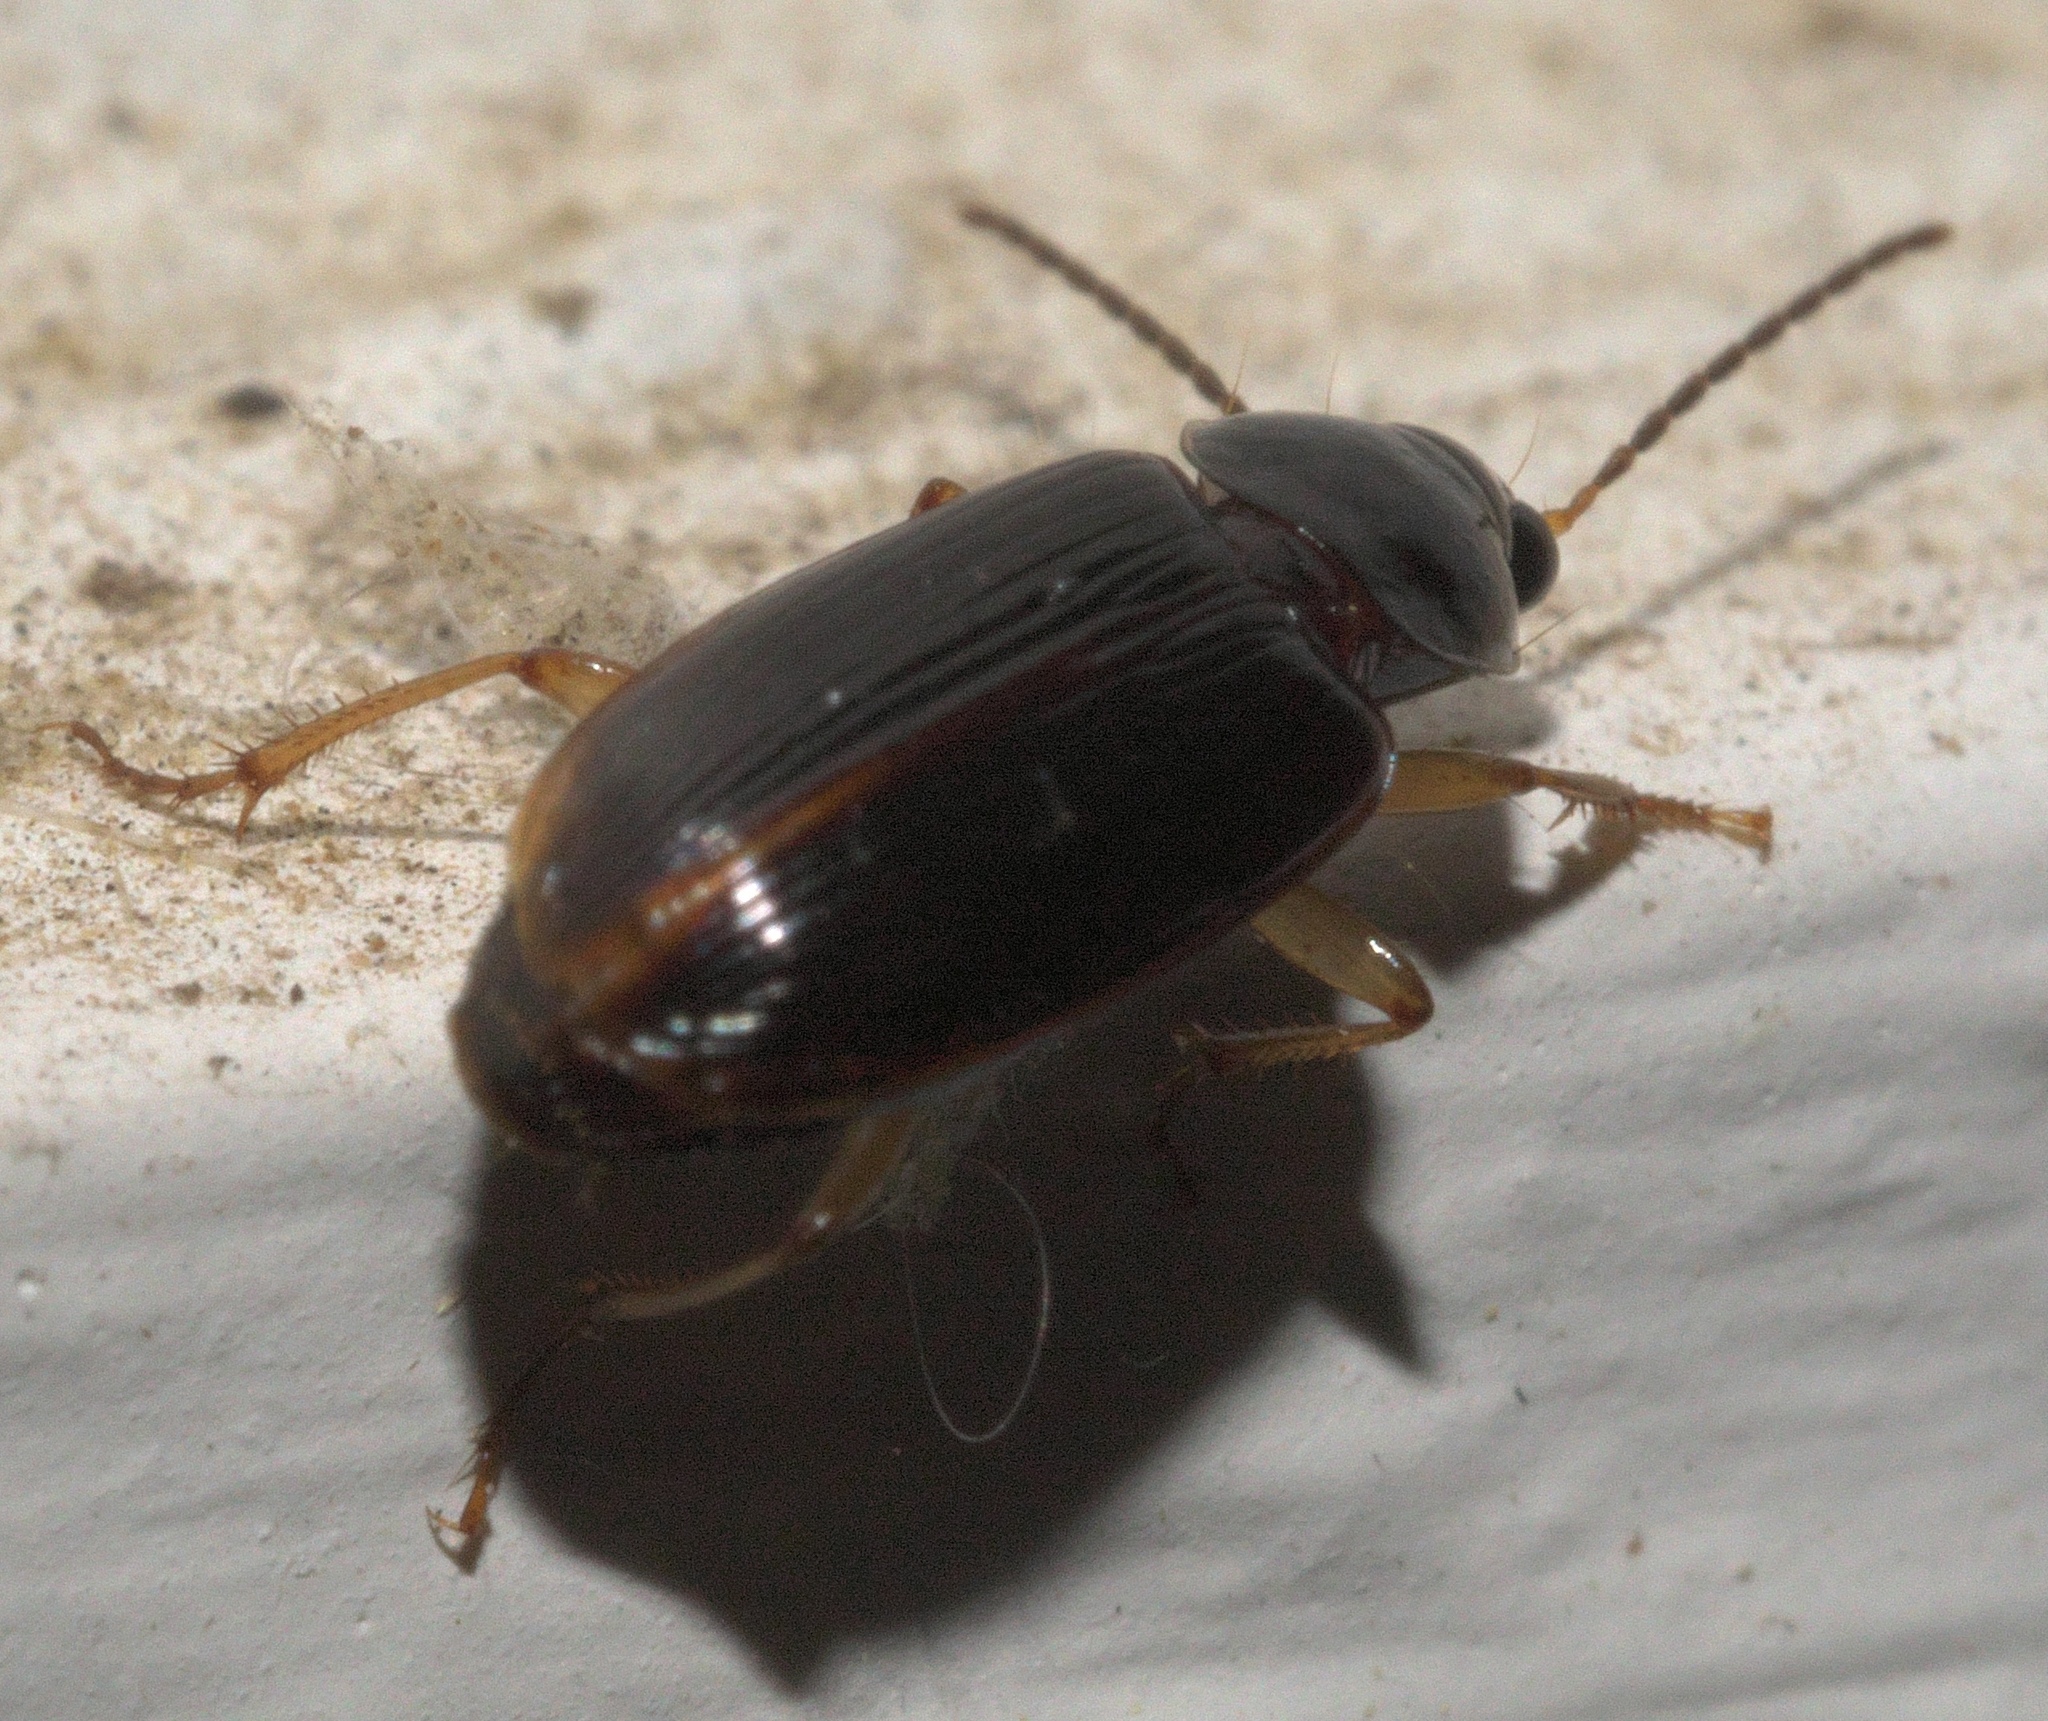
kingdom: Animalia
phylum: Arthropoda
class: Insecta
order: Coleoptera
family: Carabidae
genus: Stenolophus
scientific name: Stenolophus ochropezus
